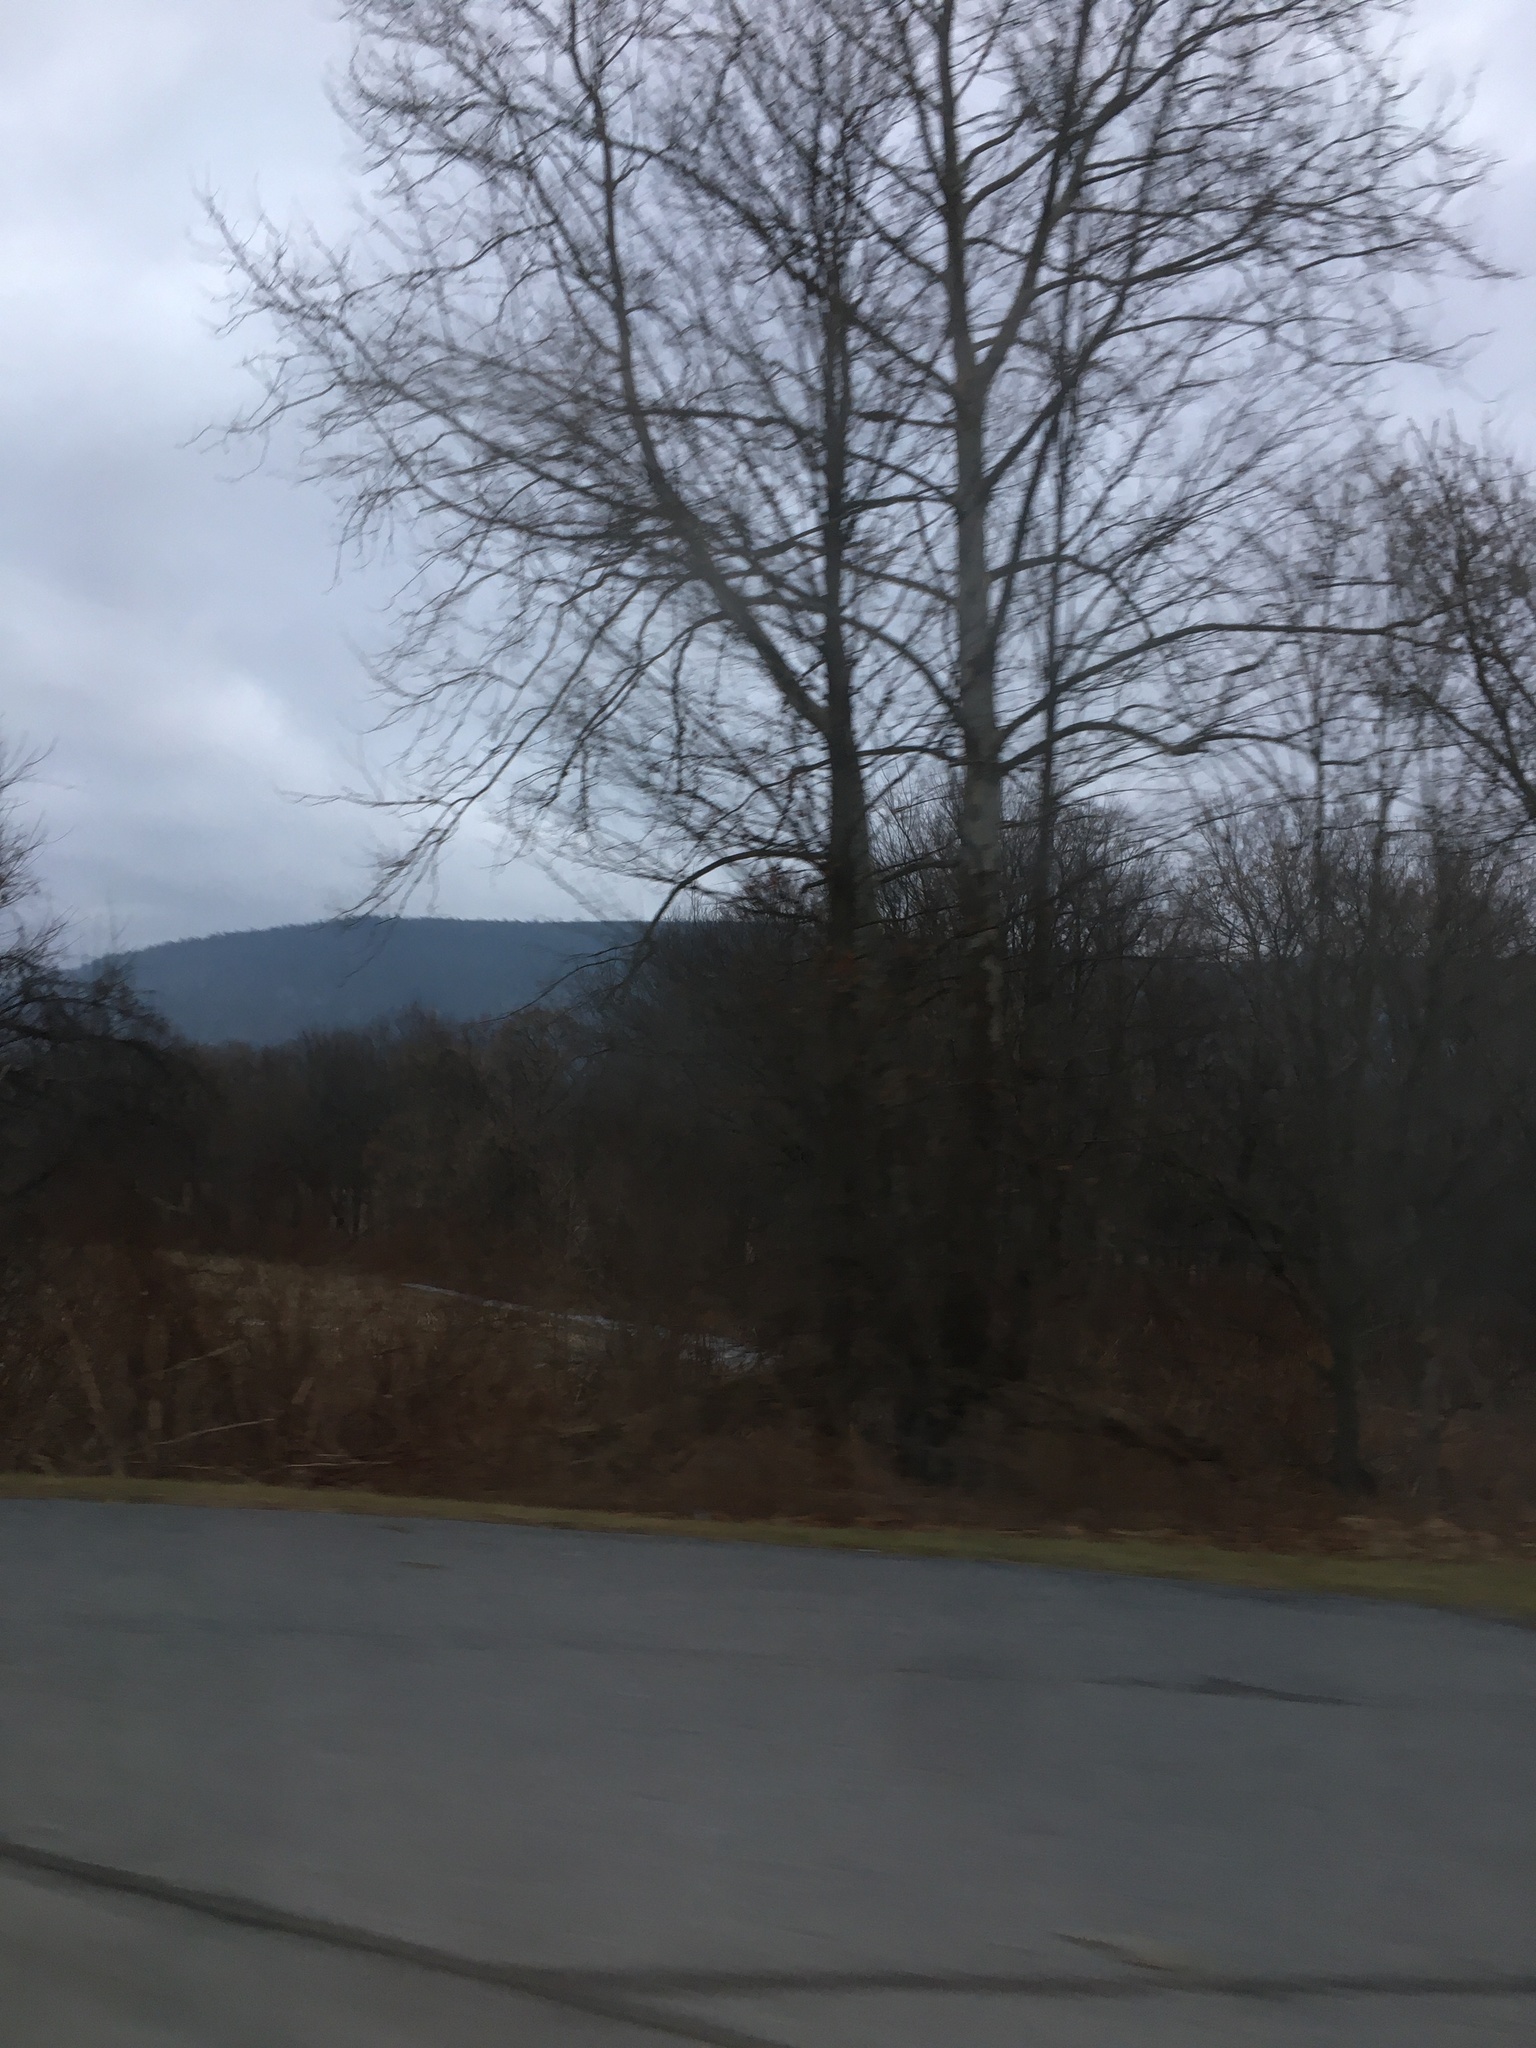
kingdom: Plantae
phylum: Tracheophyta
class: Magnoliopsida
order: Proteales
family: Platanaceae
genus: Platanus
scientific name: Platanus occidentalis
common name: American sycamore
